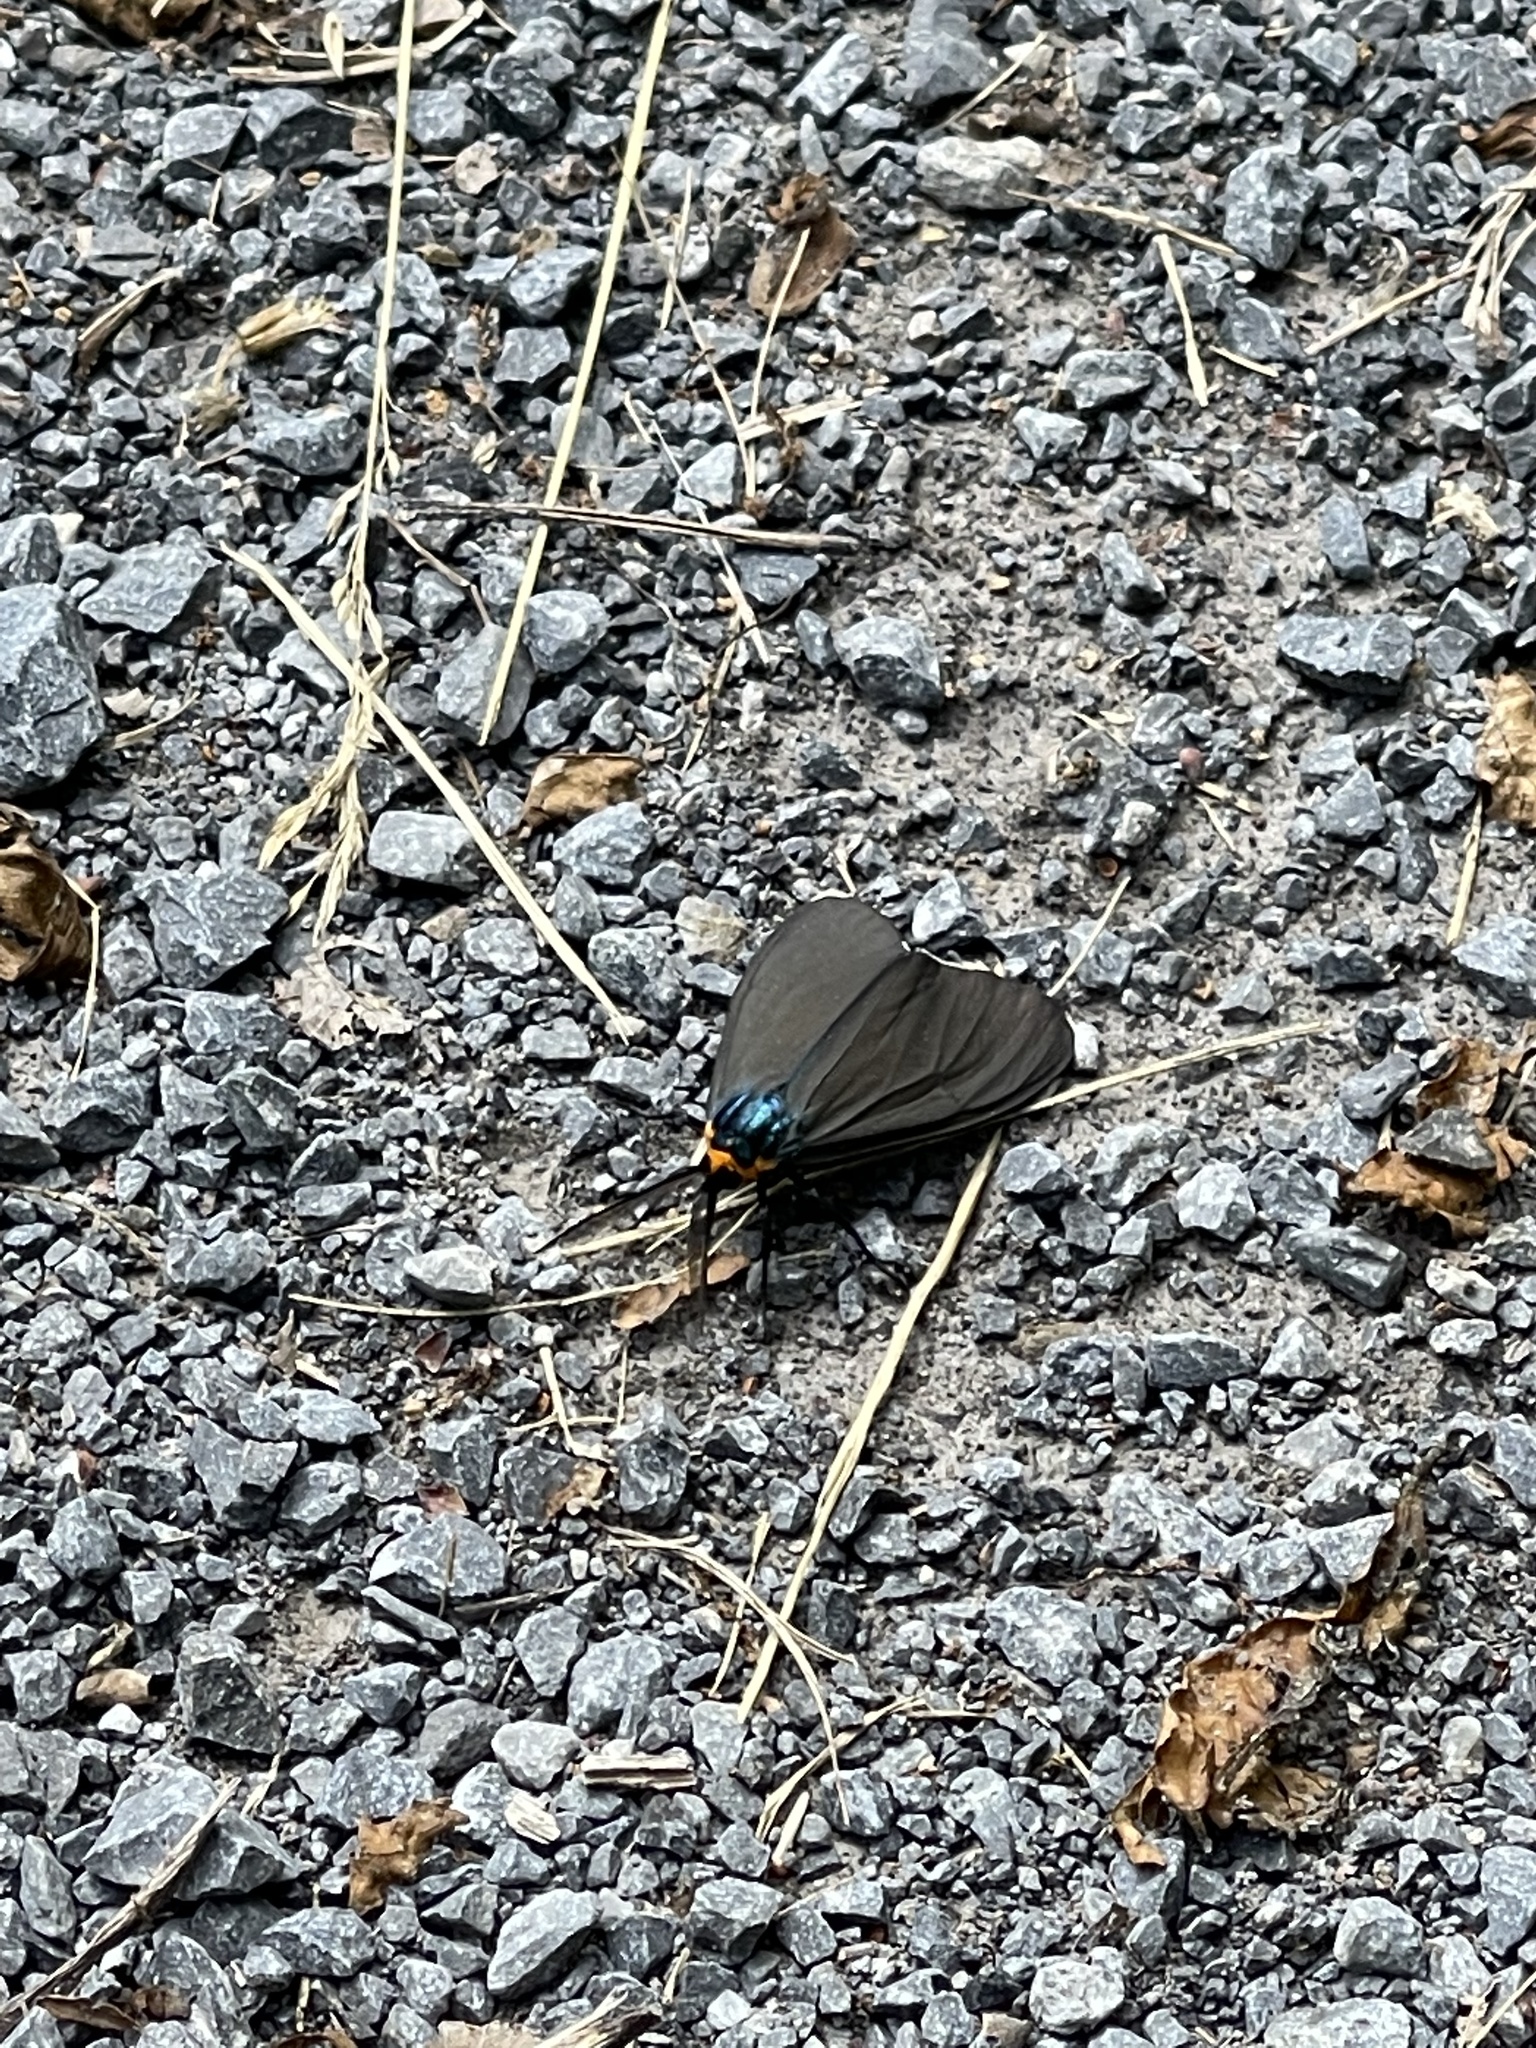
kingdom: Animalia
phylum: Arthropoda
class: Insecta
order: Lepidoptera
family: Erebidae
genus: Ctenucha
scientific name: Ctenucha virginica
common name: Virginia ctenucha moth
